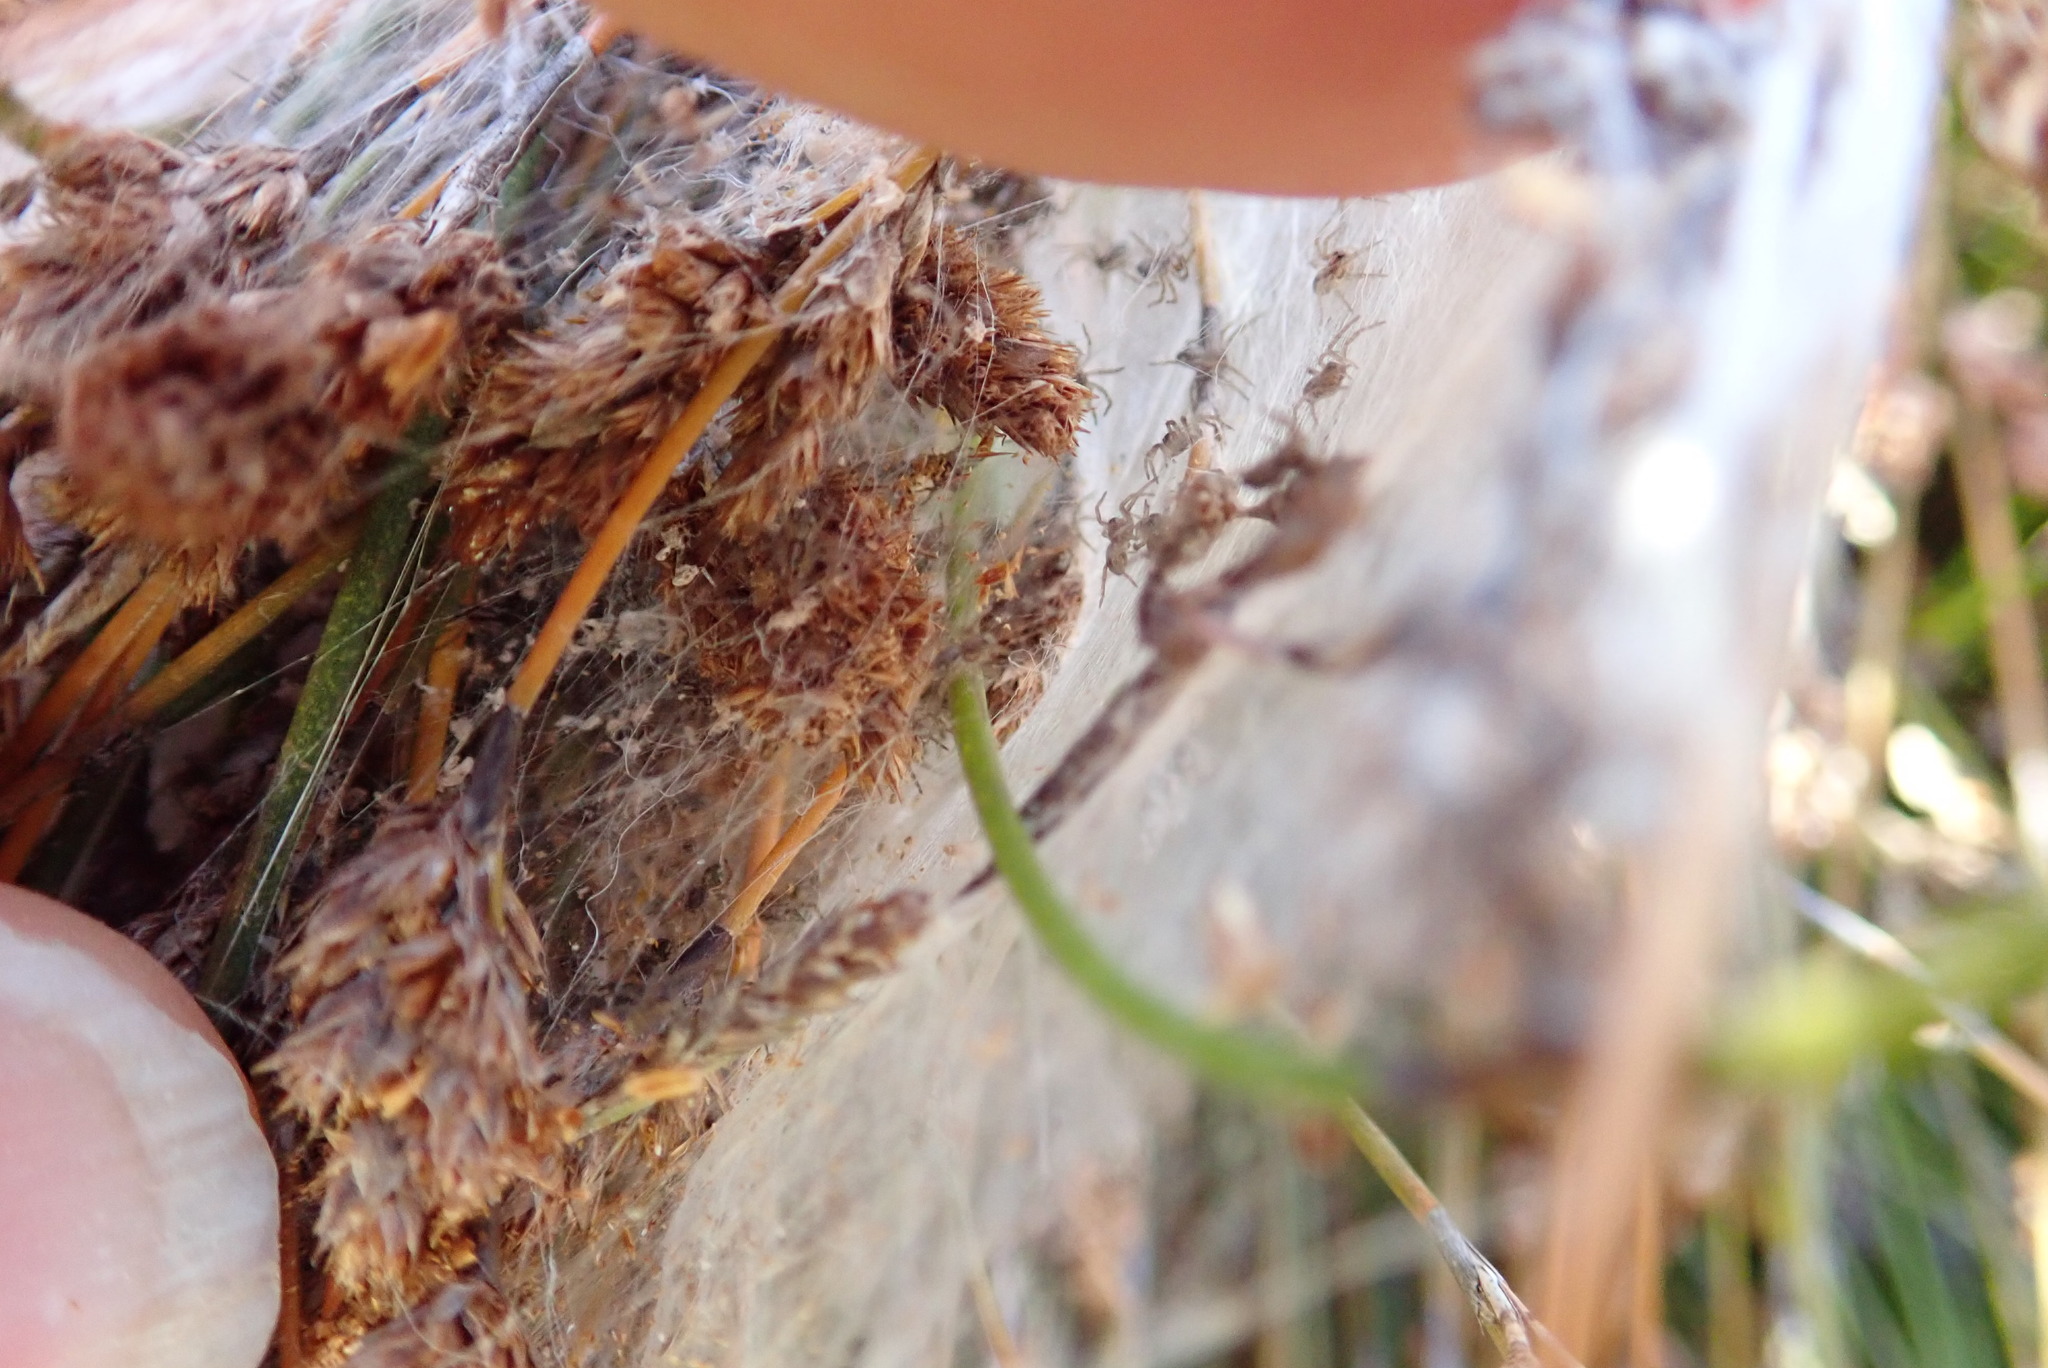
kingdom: Animalia
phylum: Arthropoda
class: Arachnida
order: Araneae
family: Pisauridae
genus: Dolomedes
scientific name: Dolomedes minor
